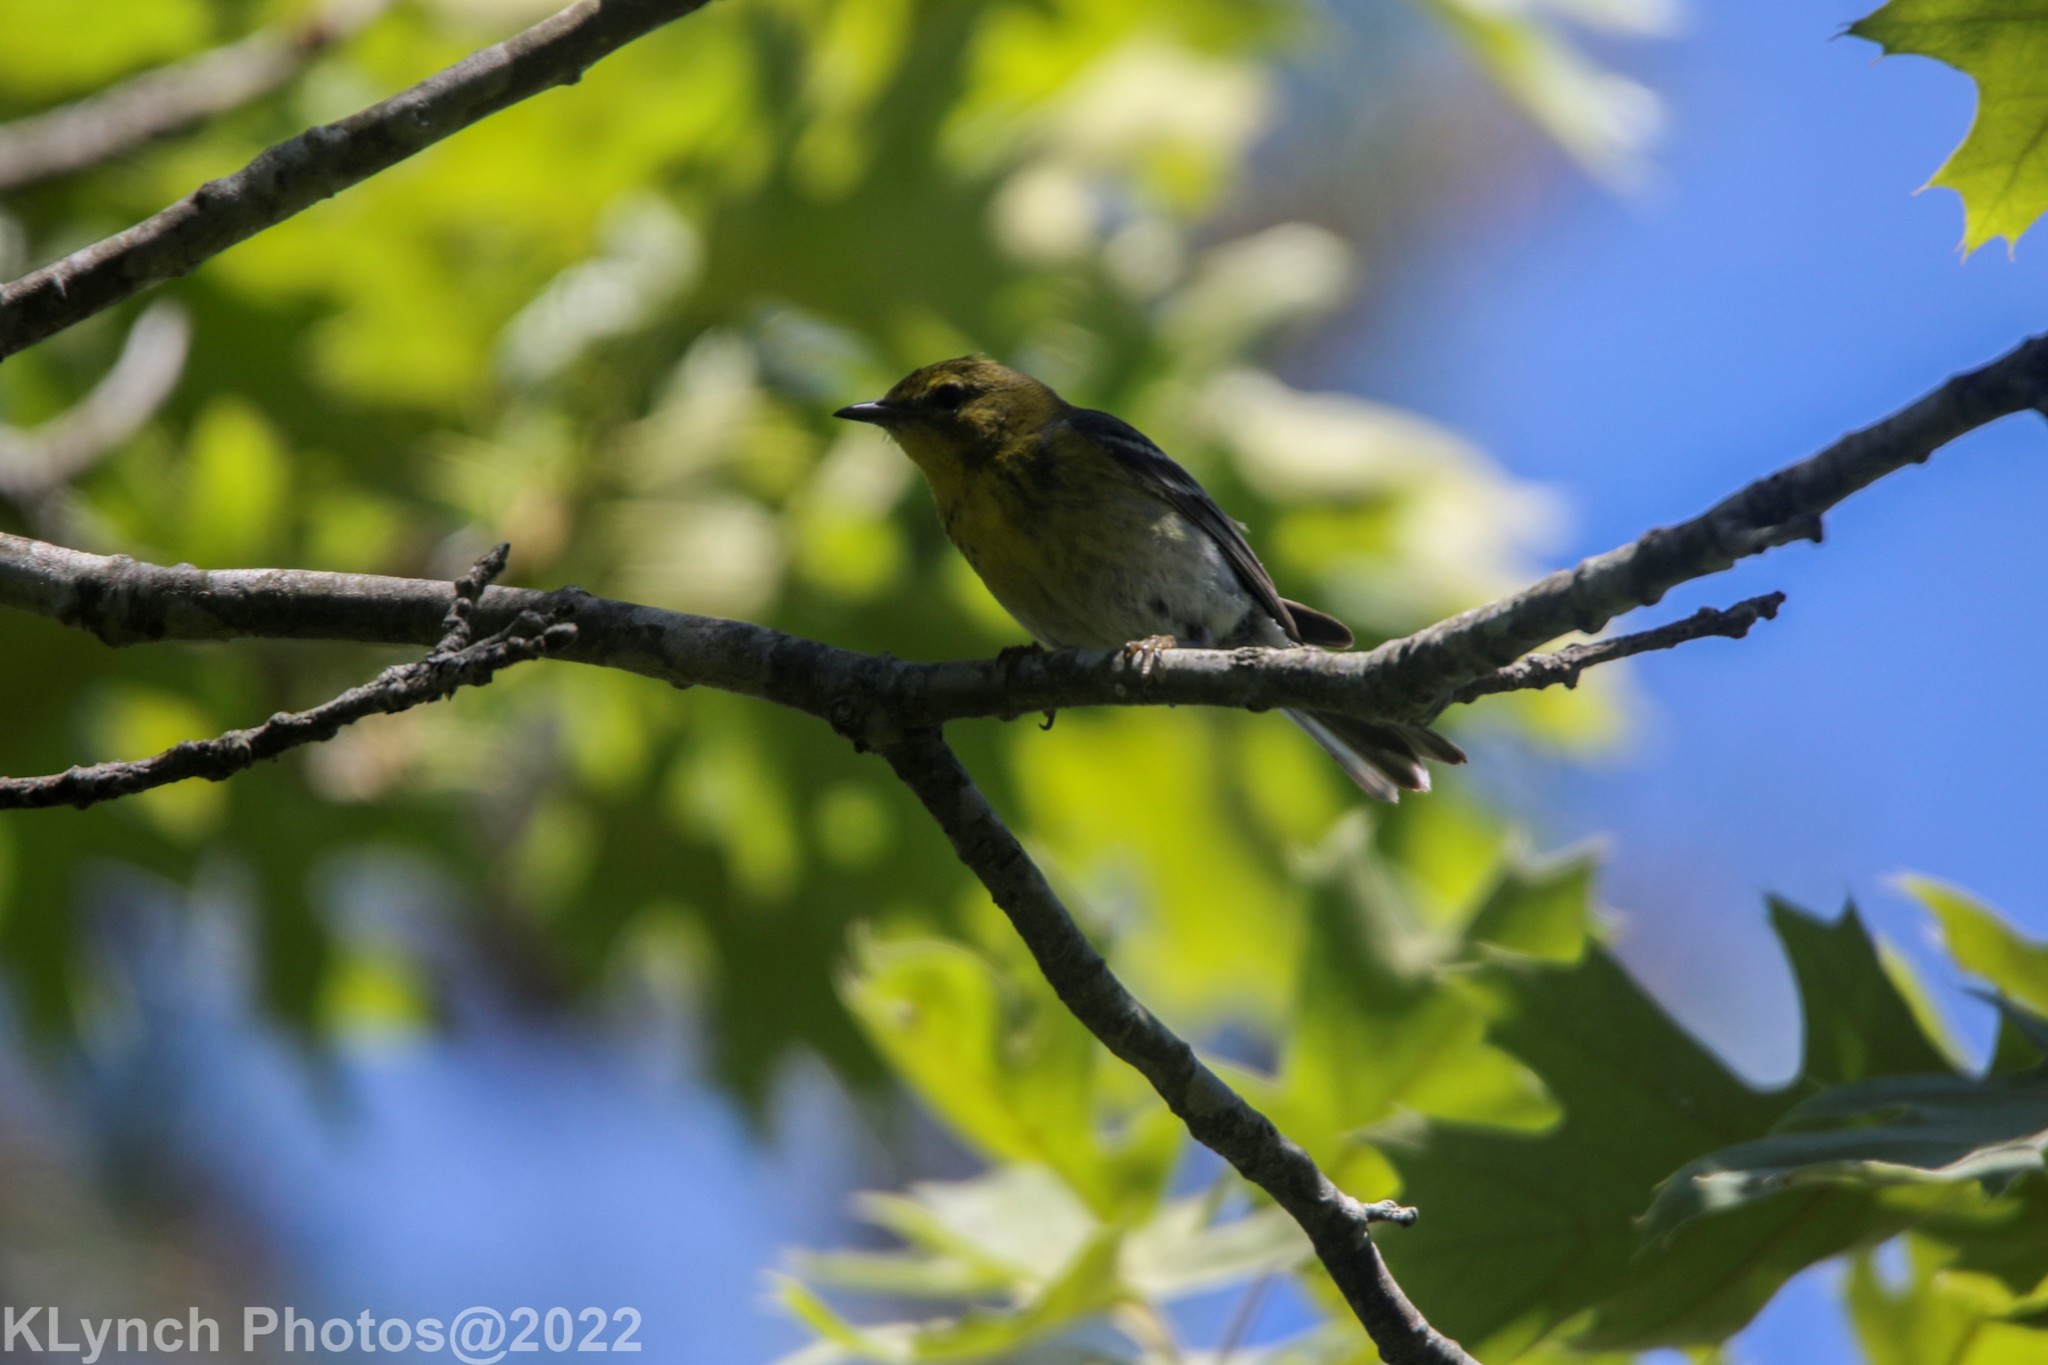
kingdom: Animalia
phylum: Chordata
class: Aves
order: Passeriformes
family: Parulidae
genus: Setophaga
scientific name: Setophaga pinus
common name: Pine warbler
